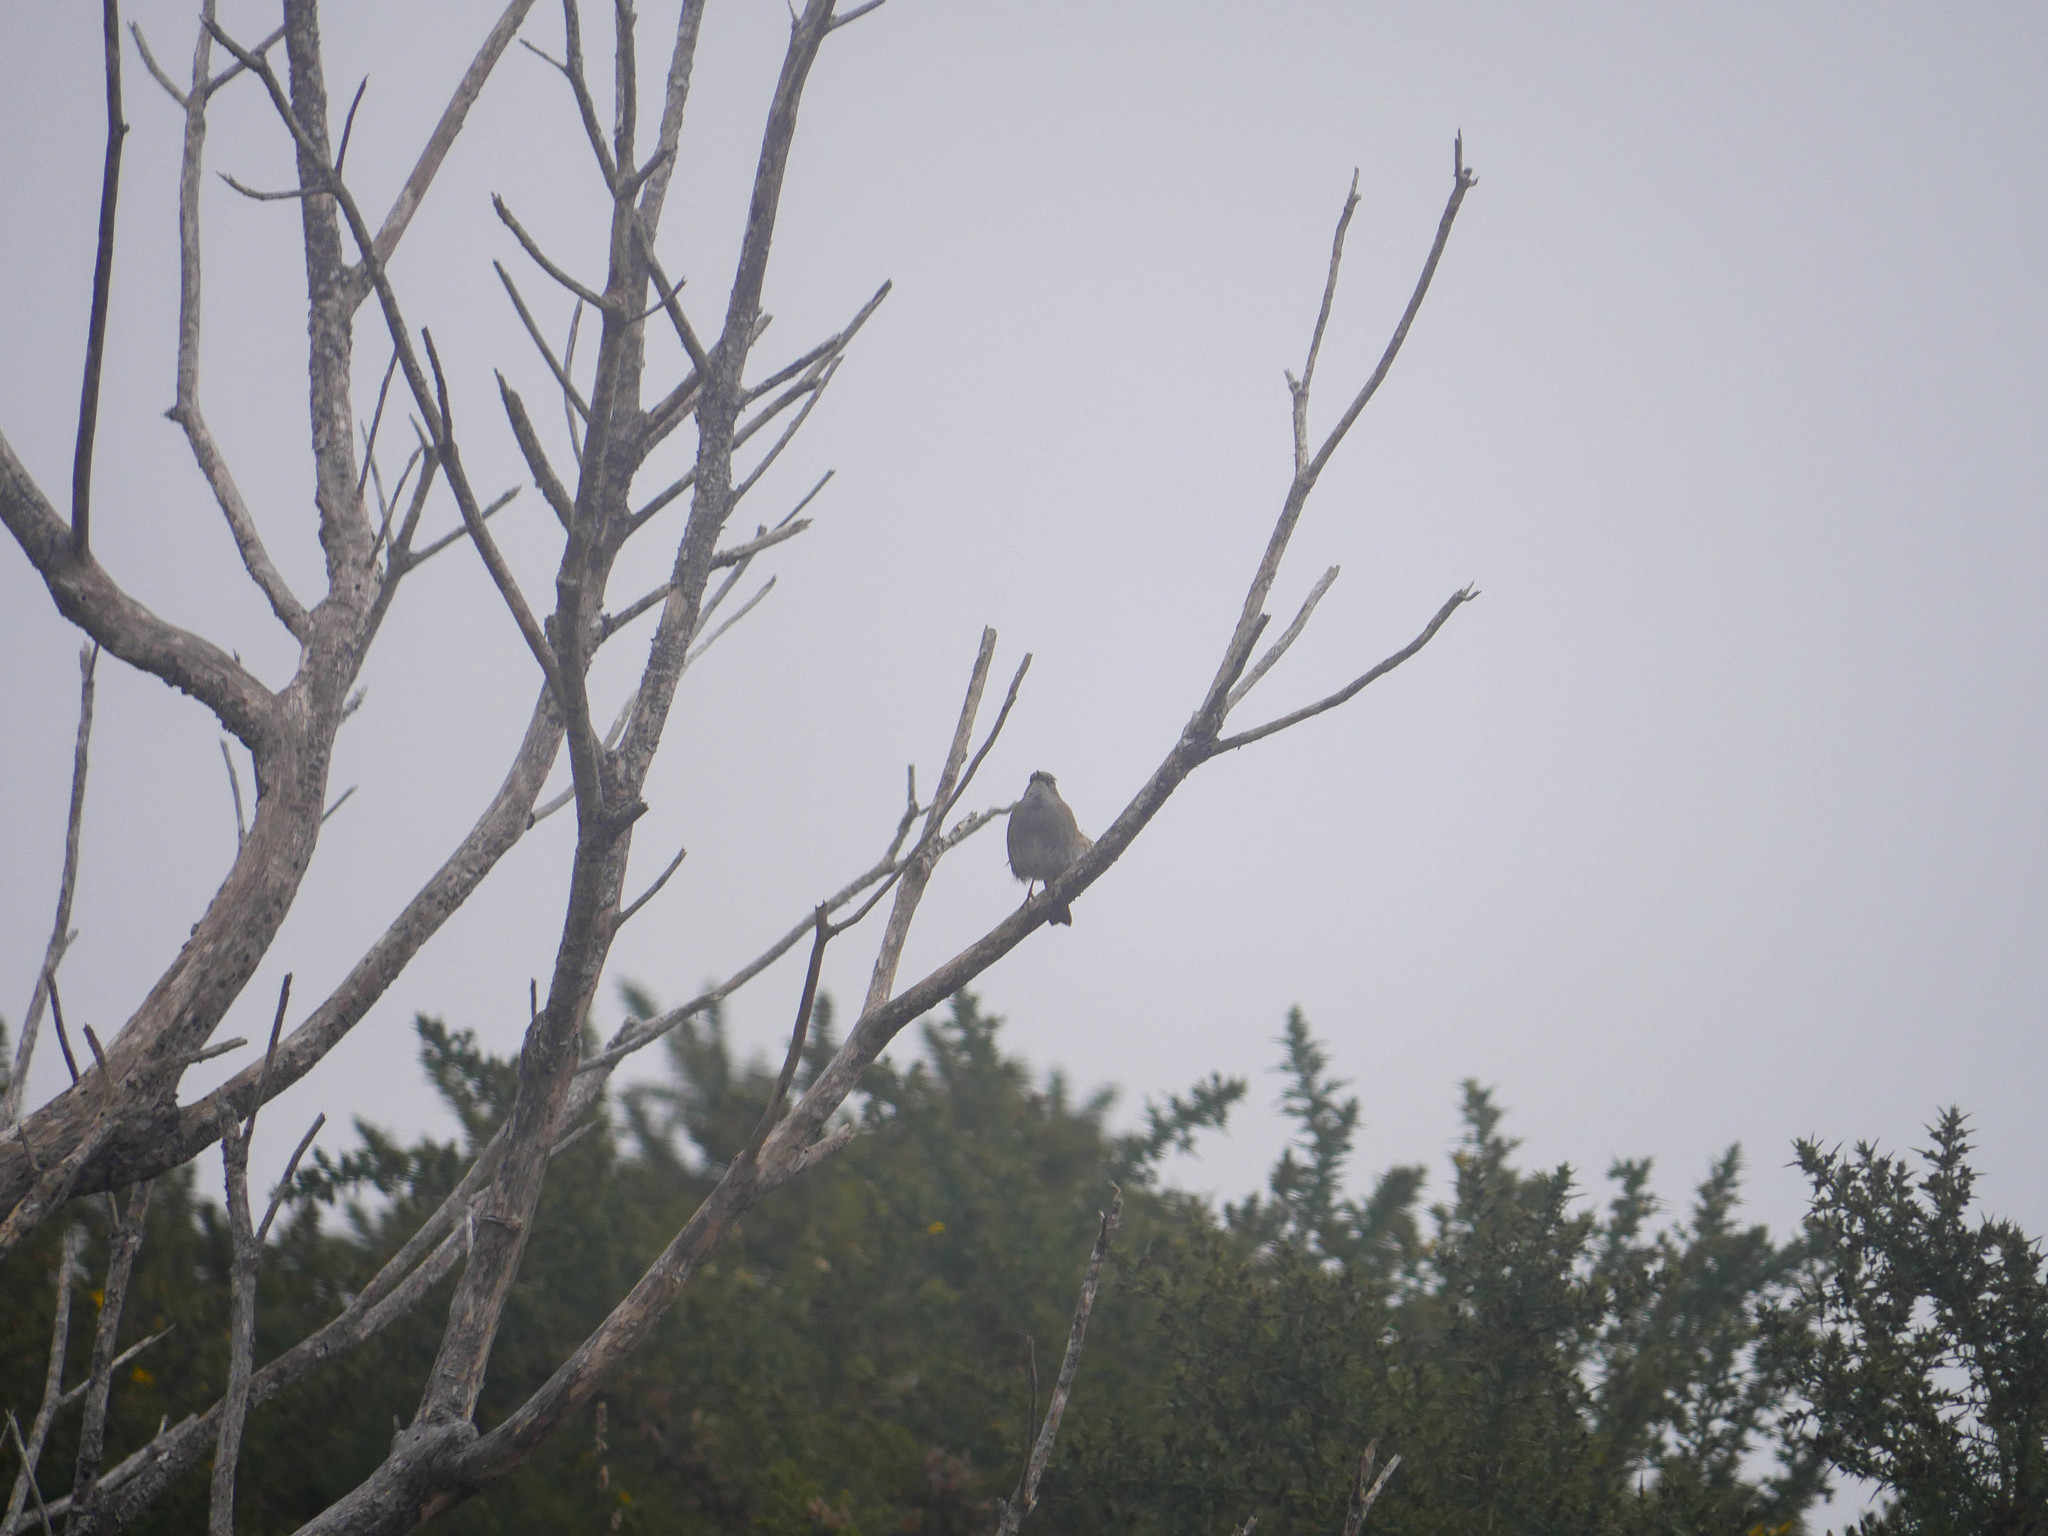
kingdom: Animalia
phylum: Chordata
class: Aves
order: Passeriformes
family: Prunellidae
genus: Prunella
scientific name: Prunella modularis
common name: Dunnock
